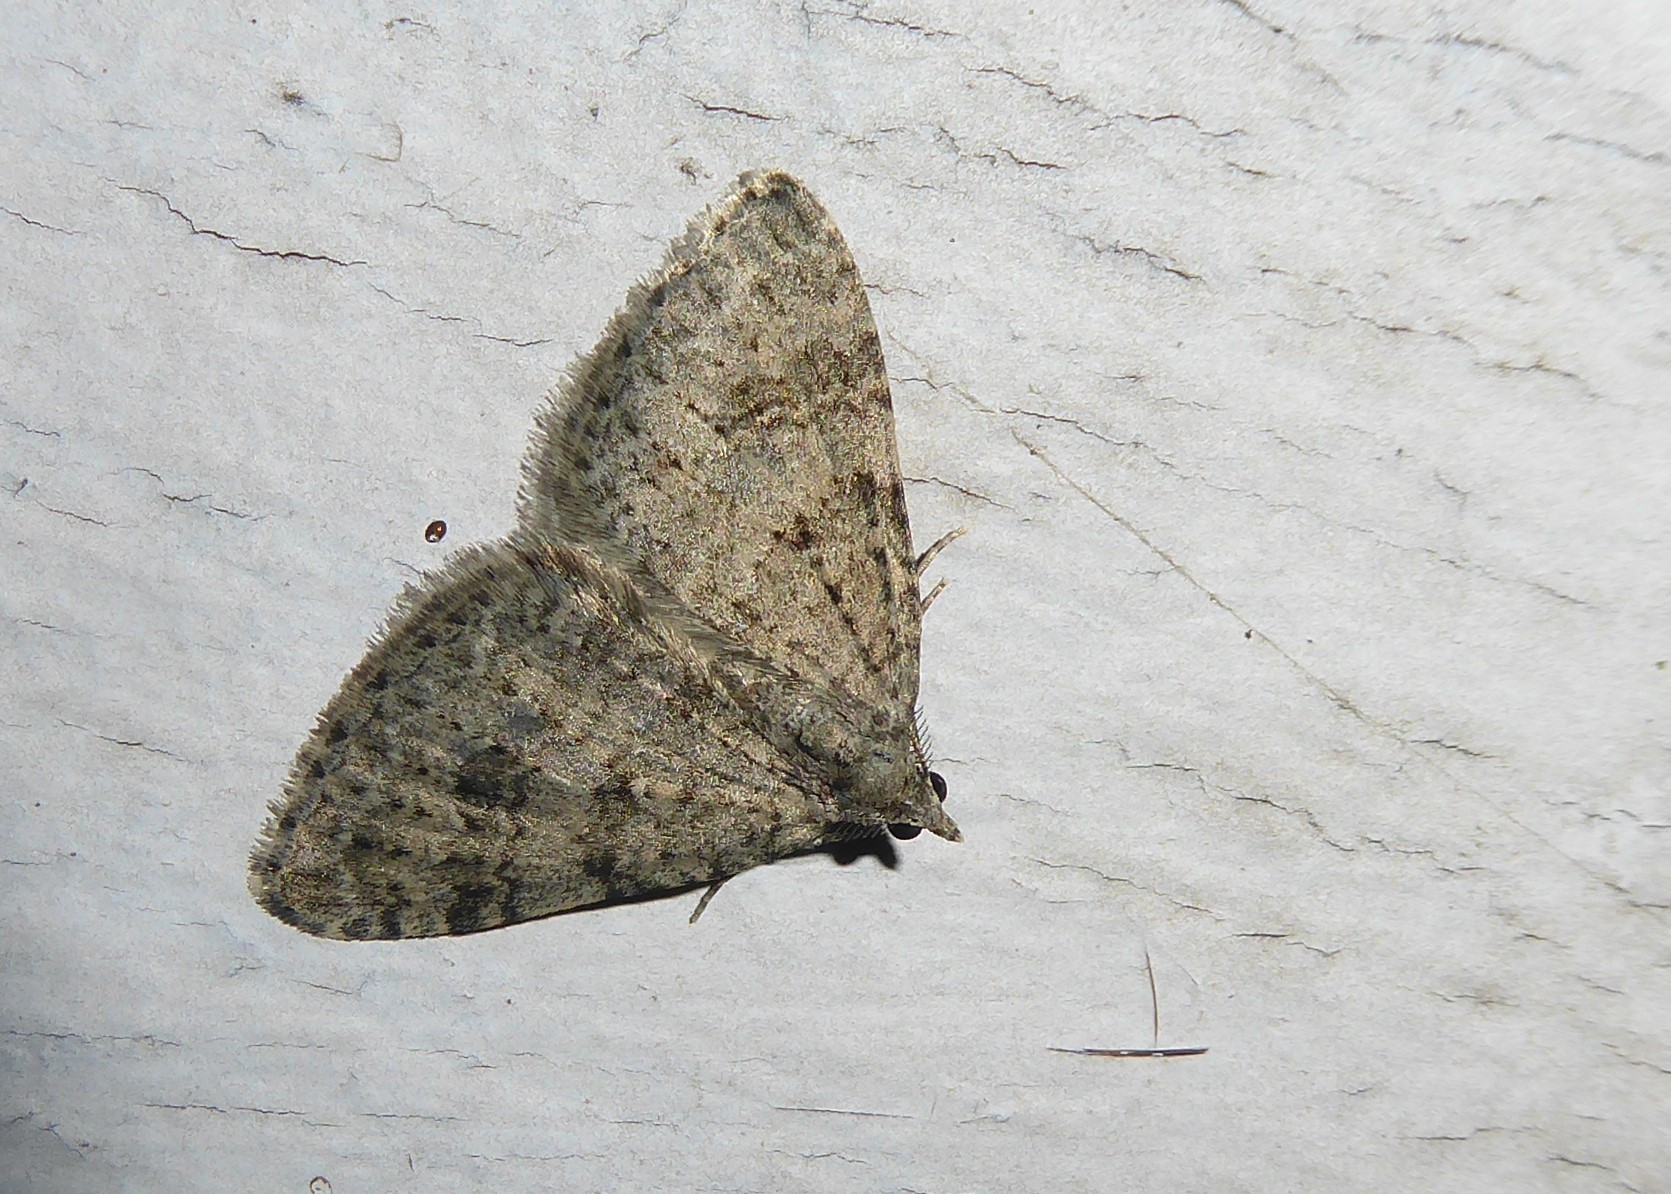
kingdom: Animalia
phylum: Arthropoda
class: Insecta
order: Lepidoptera
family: Geometridae
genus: Helastia
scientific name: Helastia corcularia
